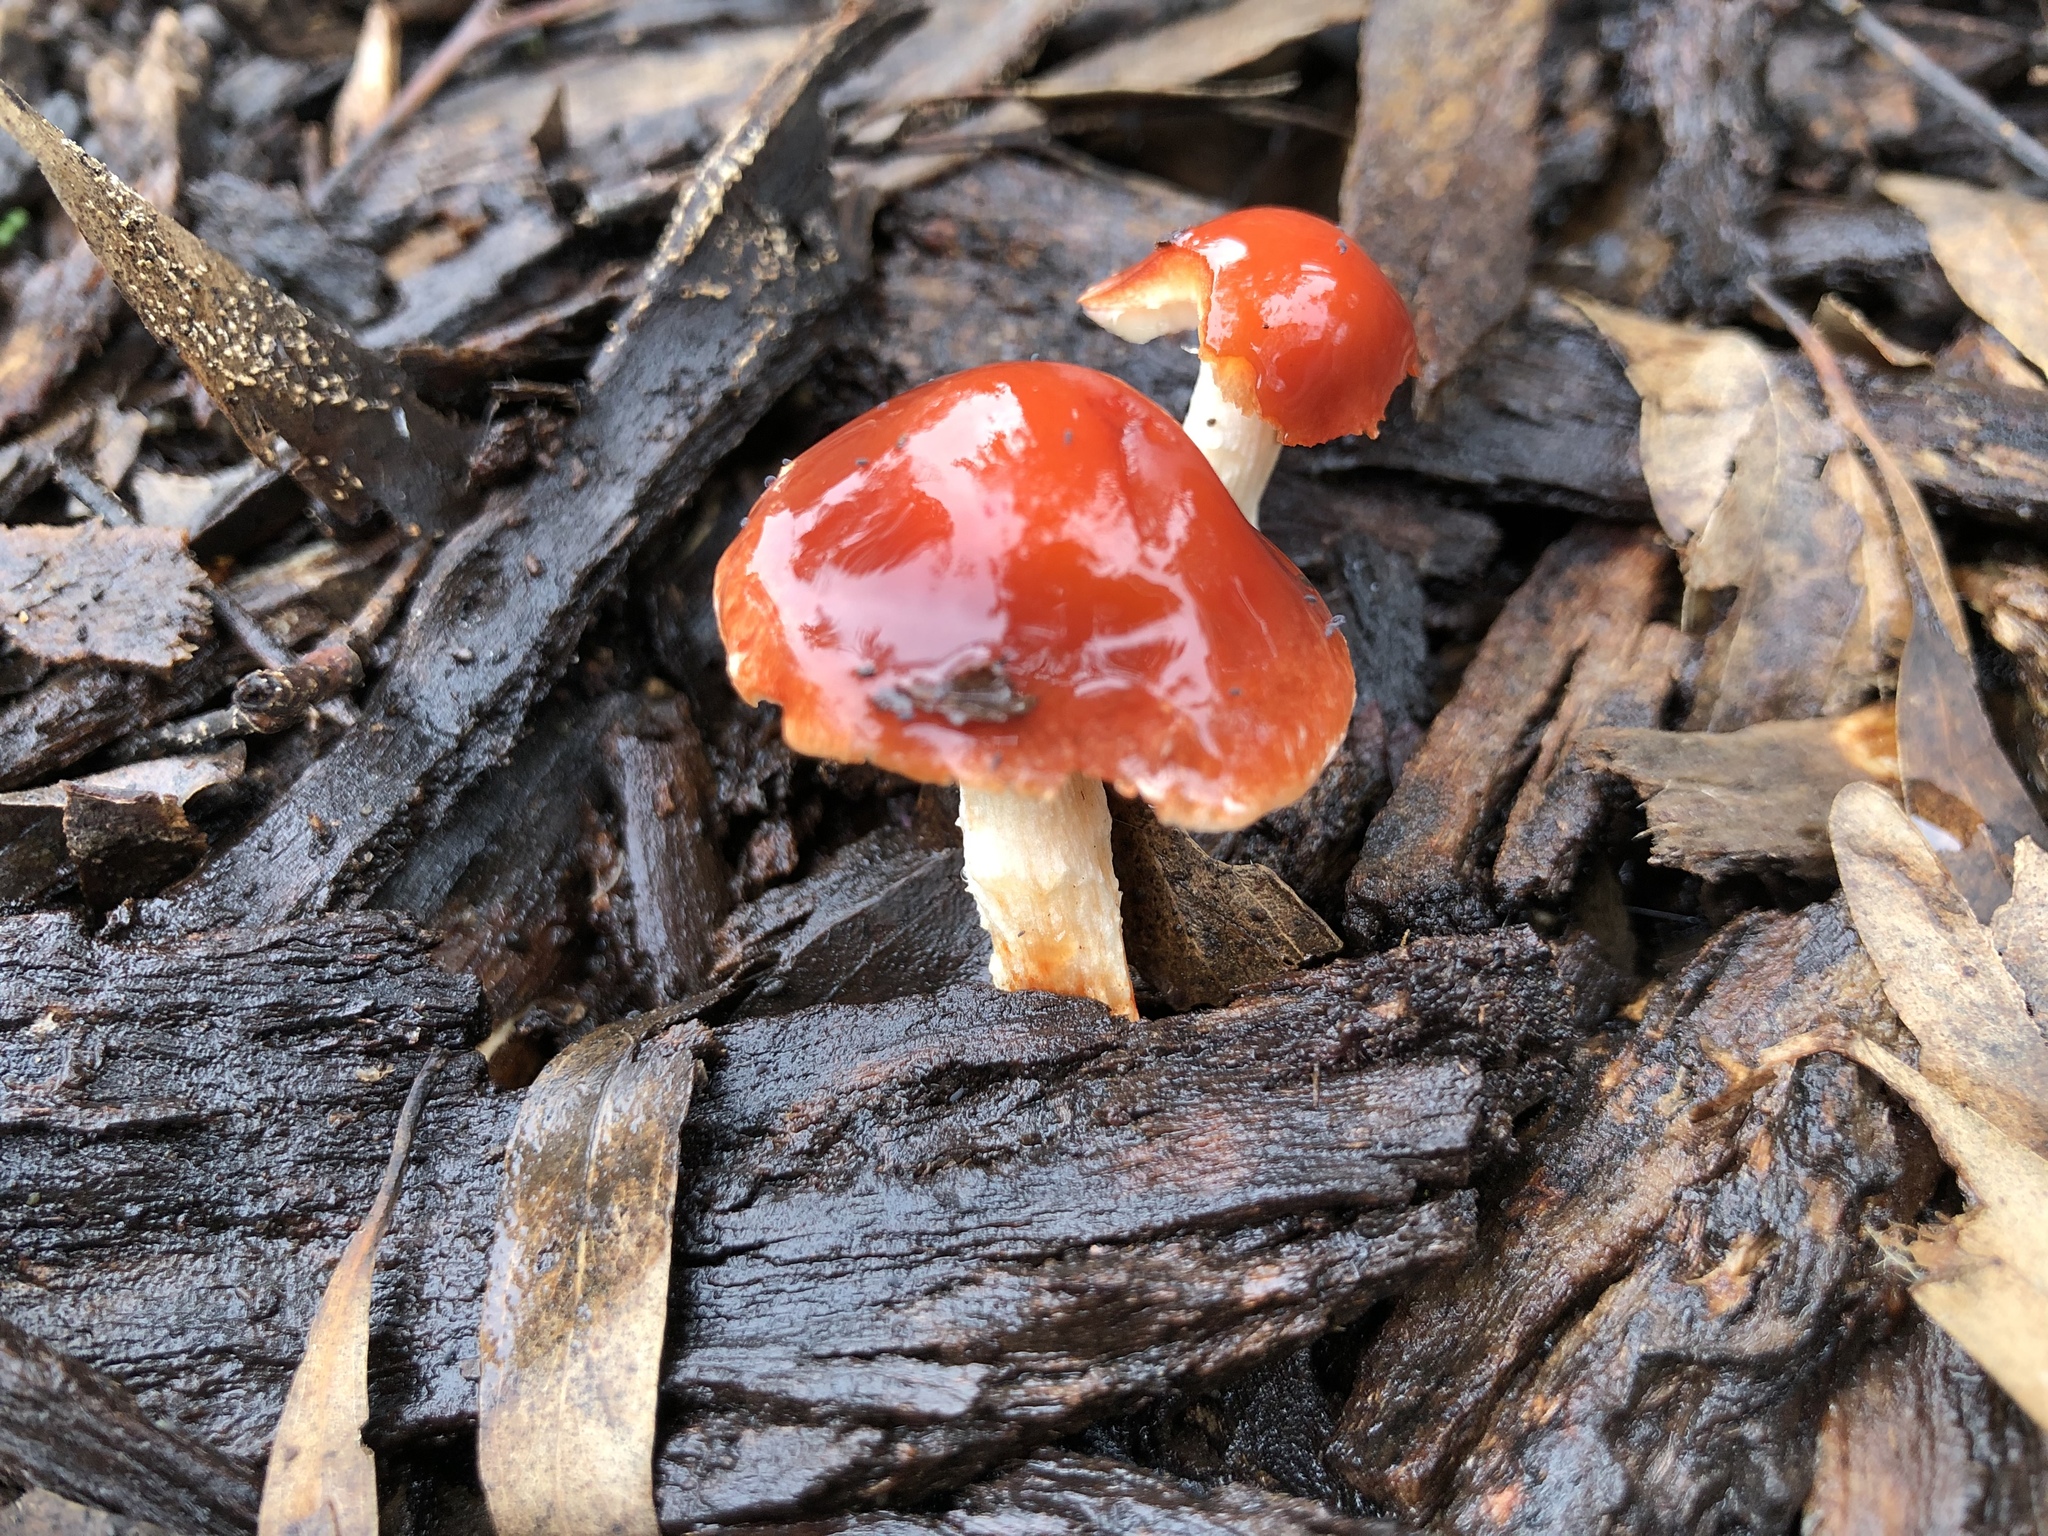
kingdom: Fungi
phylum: Basidiomycota
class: Agaricomycetes
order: Agaricales
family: Strophariaceae
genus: Leratiomyces
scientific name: Leratiomyces ceres
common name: Redlead roundhead
